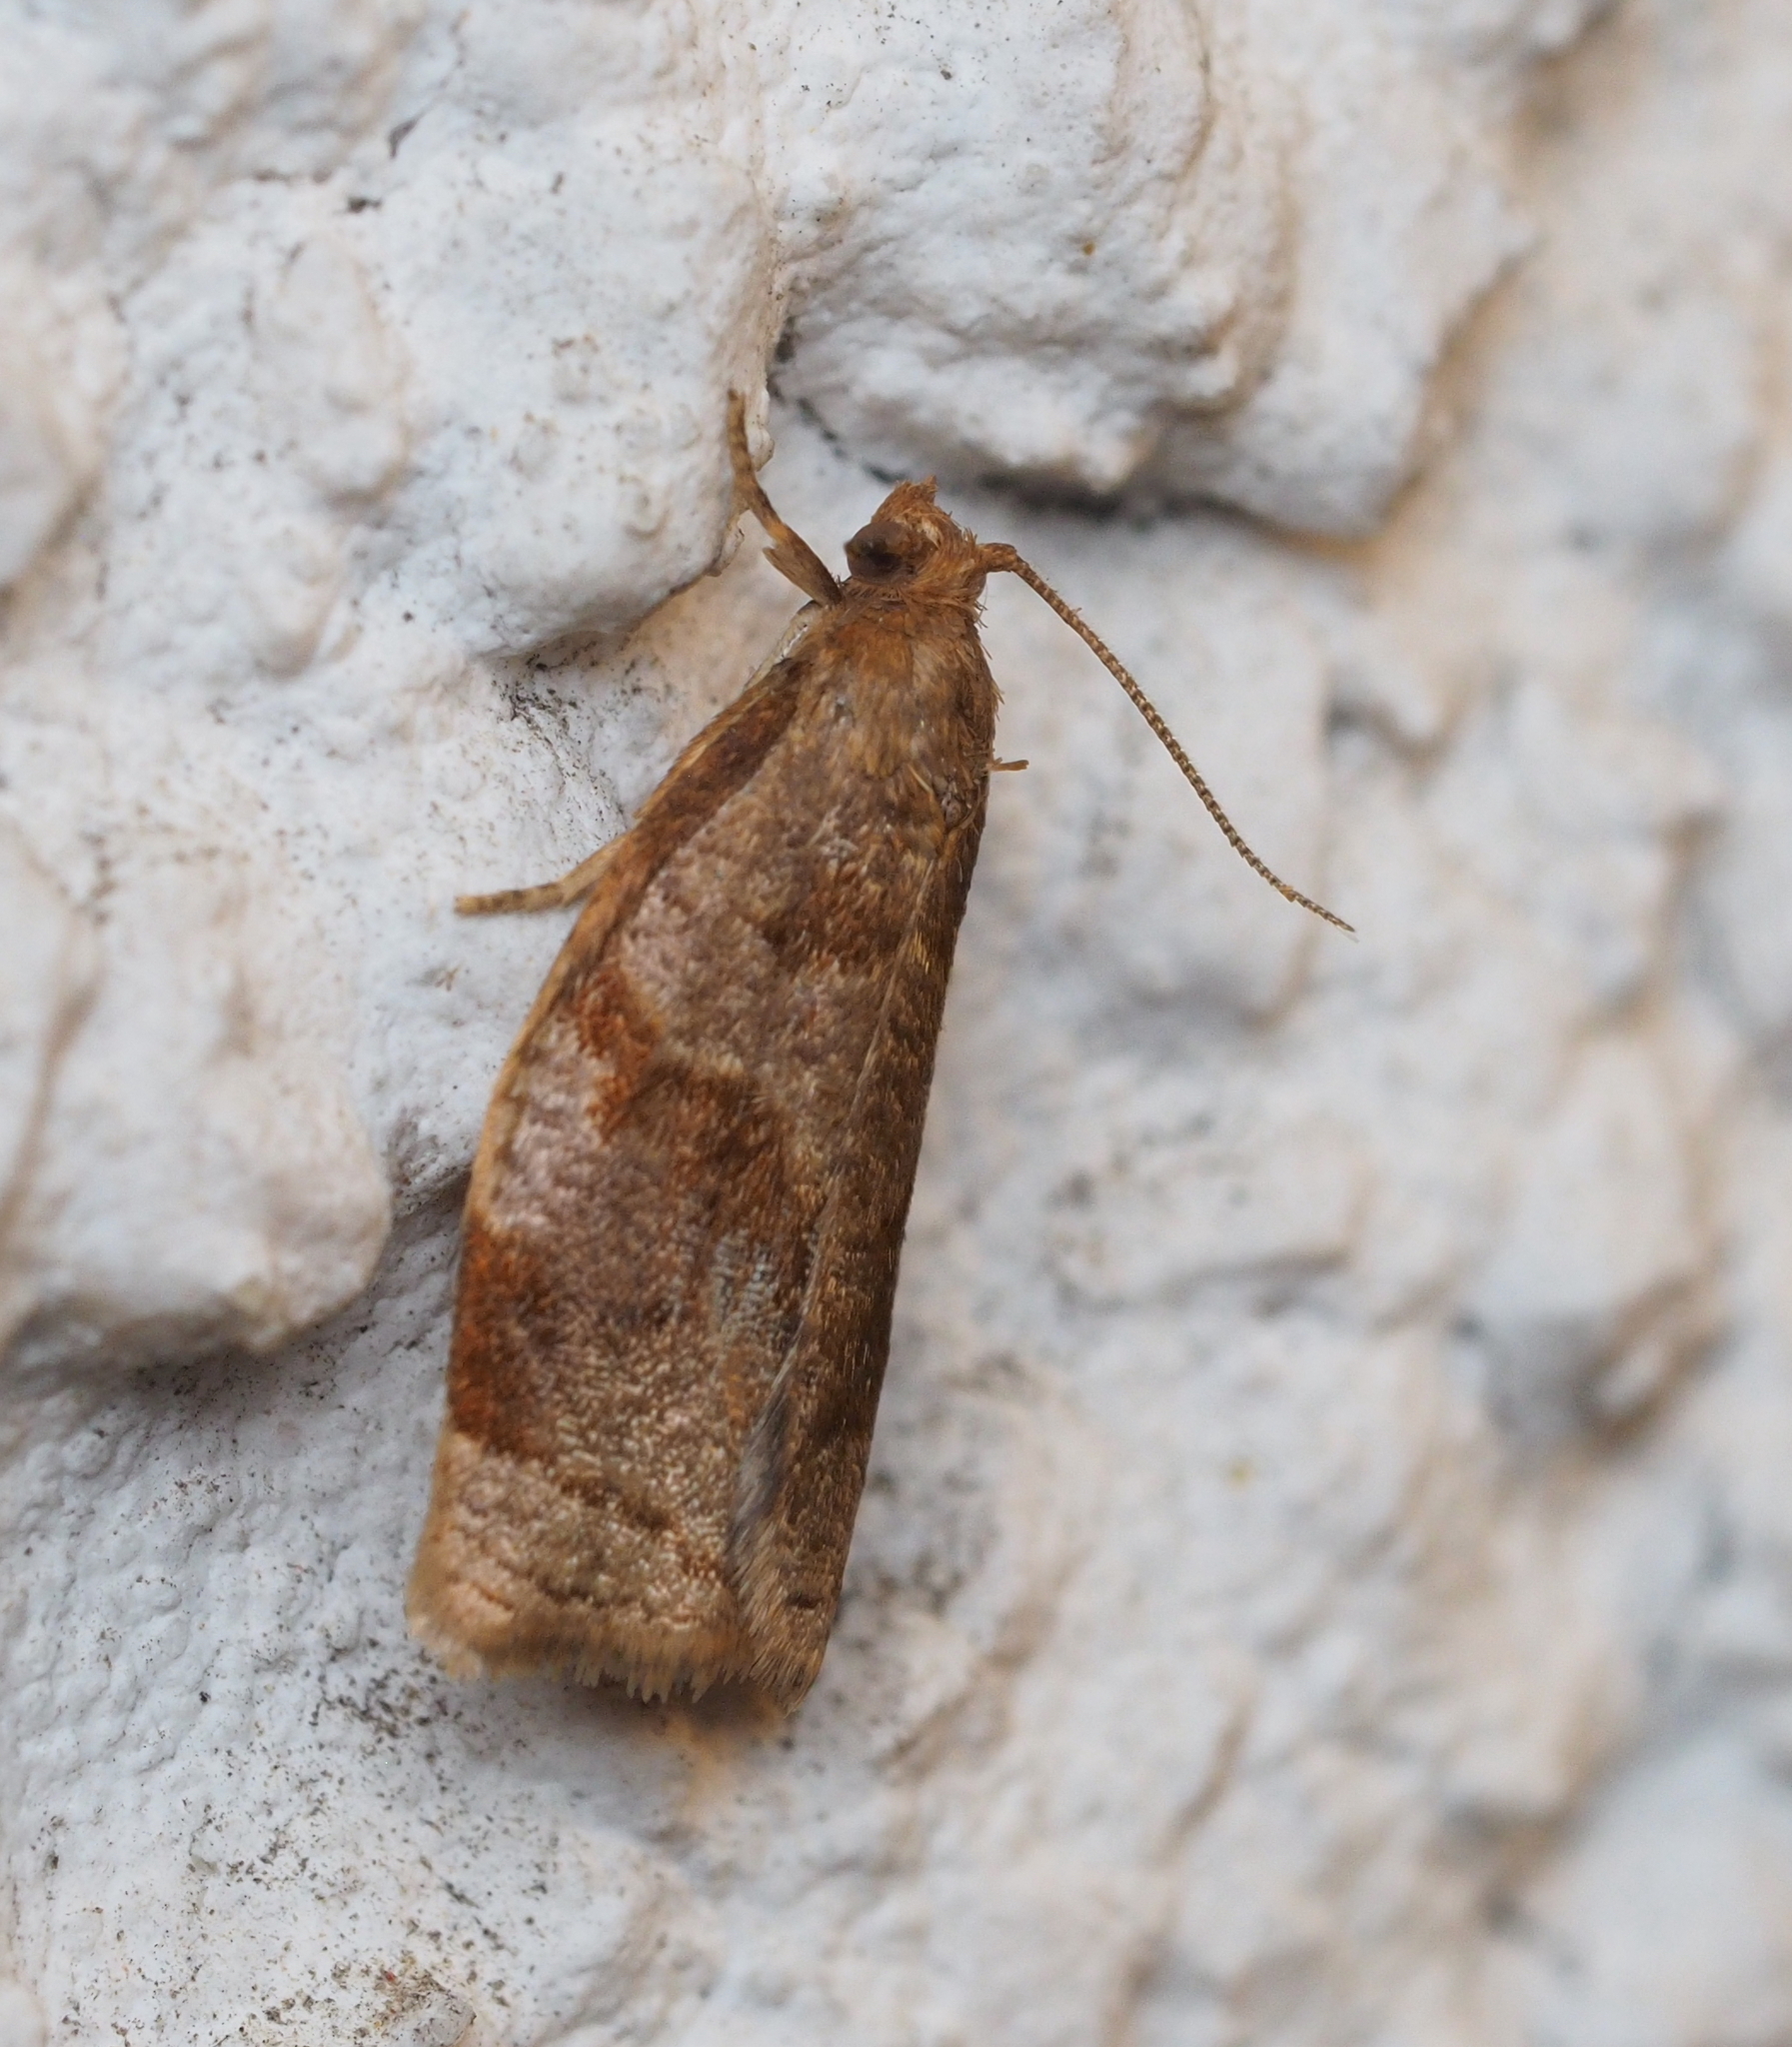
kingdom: Animalia
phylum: Arthropoda
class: Insecta
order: Lepidoptera
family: Tortricidae
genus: Archips
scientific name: Archips rosana
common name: Rose tortrix
